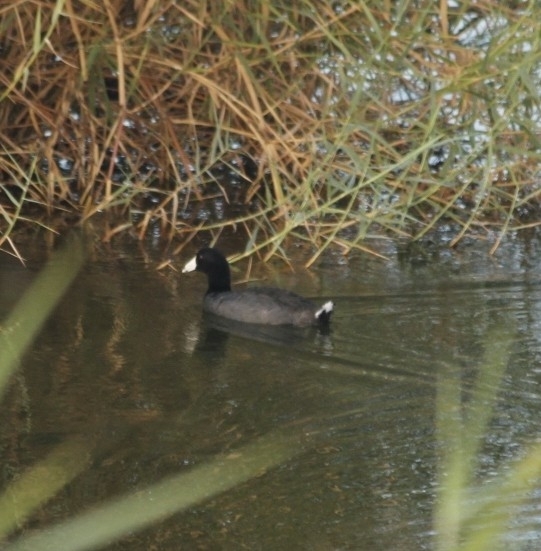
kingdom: Animalia
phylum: Chordata
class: Aves
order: Gruiformes
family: Rallidae
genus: Fulica
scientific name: Fulica americana
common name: American coot
